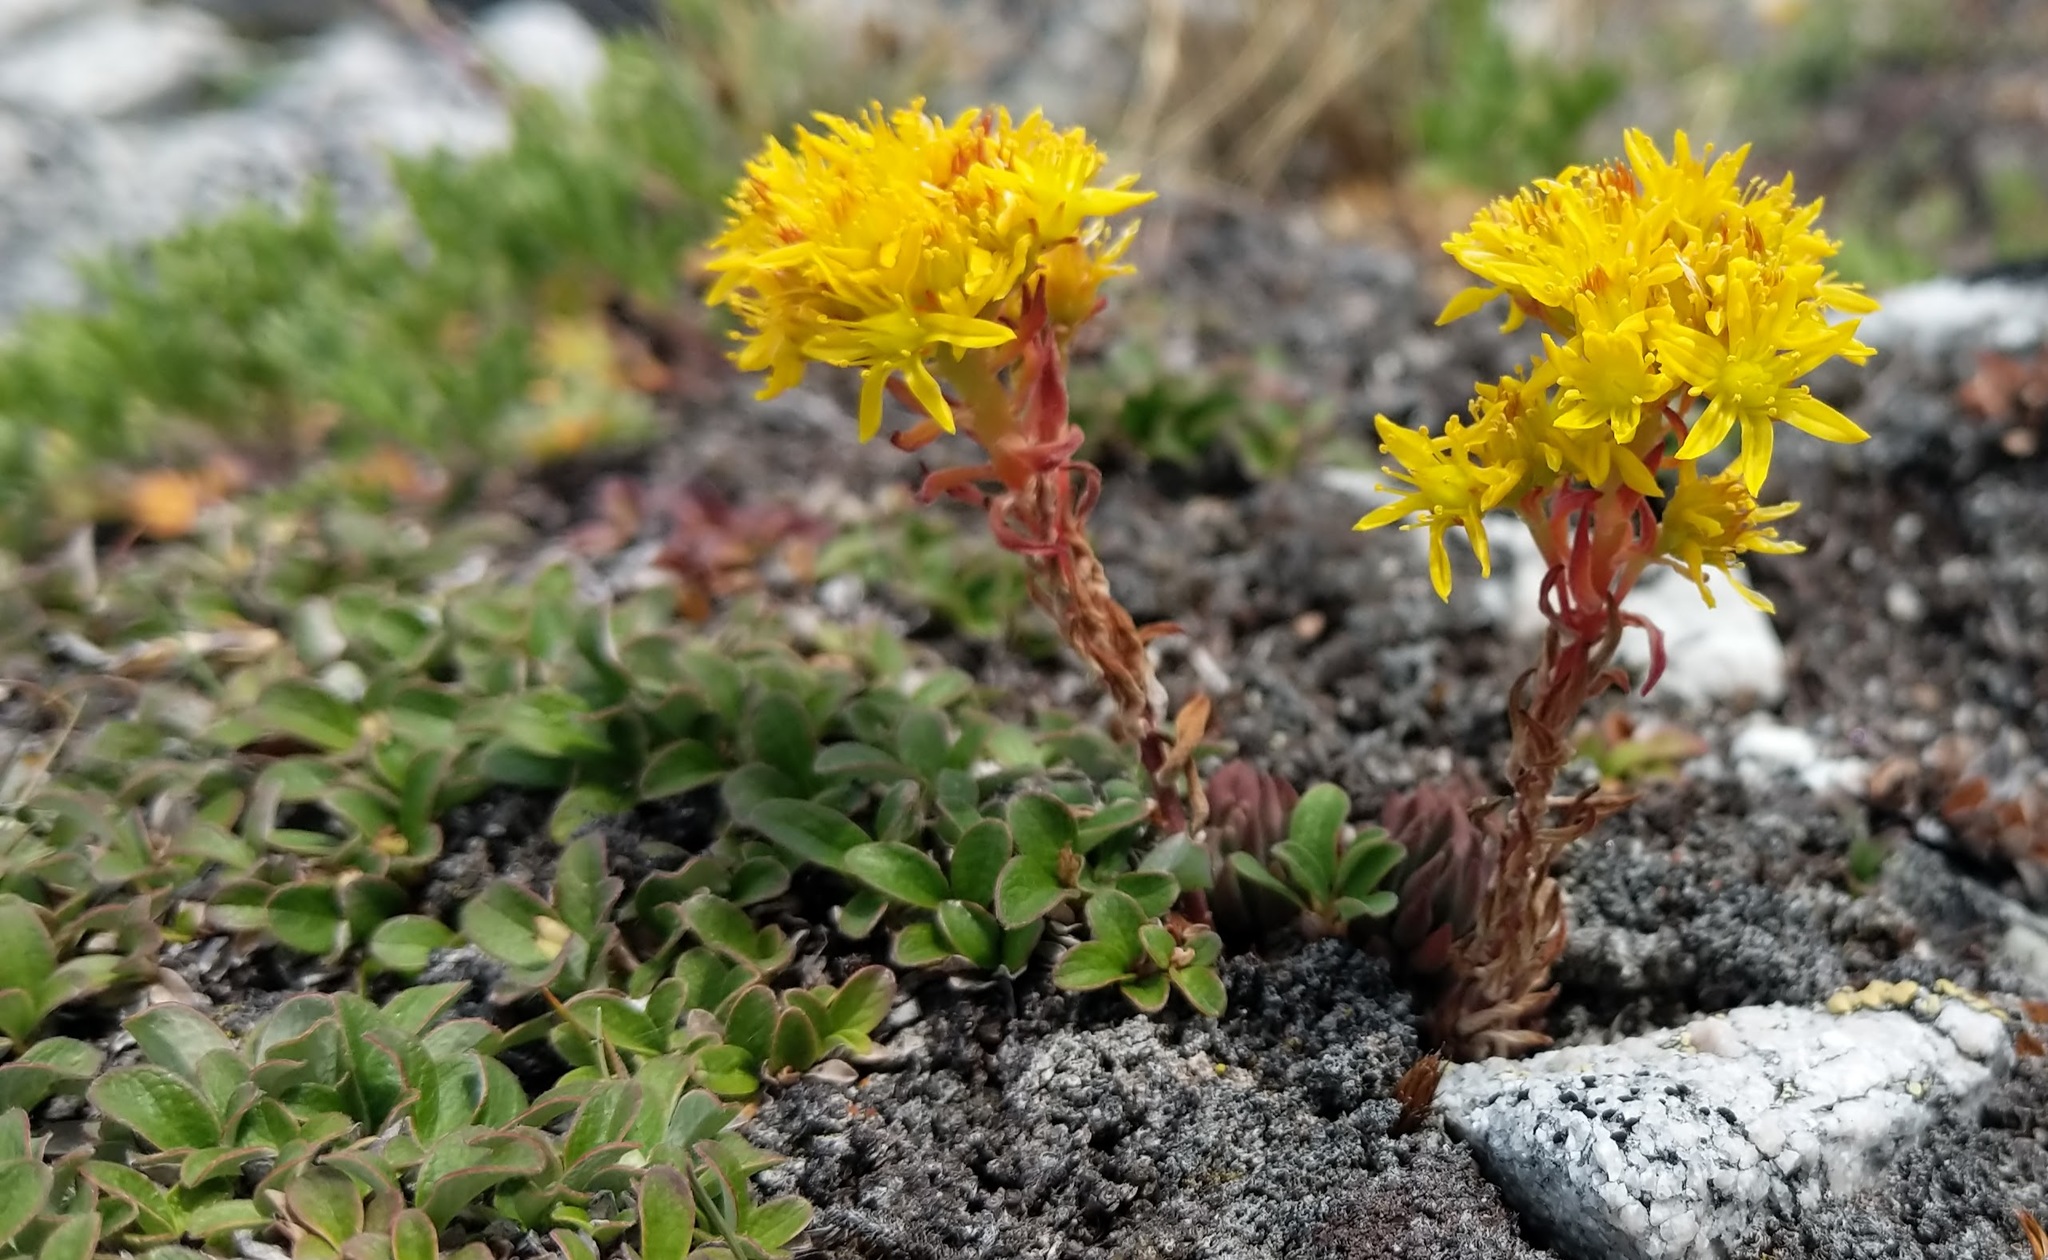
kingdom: Plantae
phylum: Tracheophyta
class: Magnoliopsida
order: Saxifragales
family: Crassulaceae
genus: Sedum
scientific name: Sedum lanceolatum
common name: Common stonecrop
